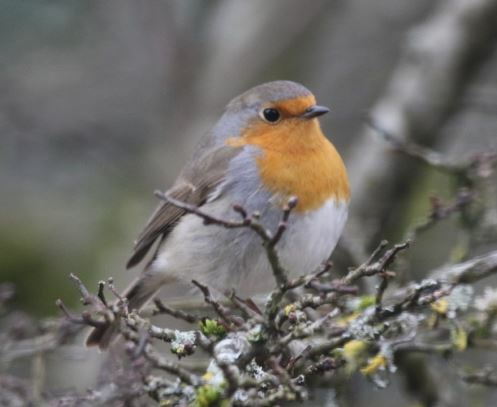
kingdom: Animalia
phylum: Chordata
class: Aves
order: Passeriformes
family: Muscicapidae
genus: Erithacus
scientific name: Erithacus rubecula
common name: European robin
